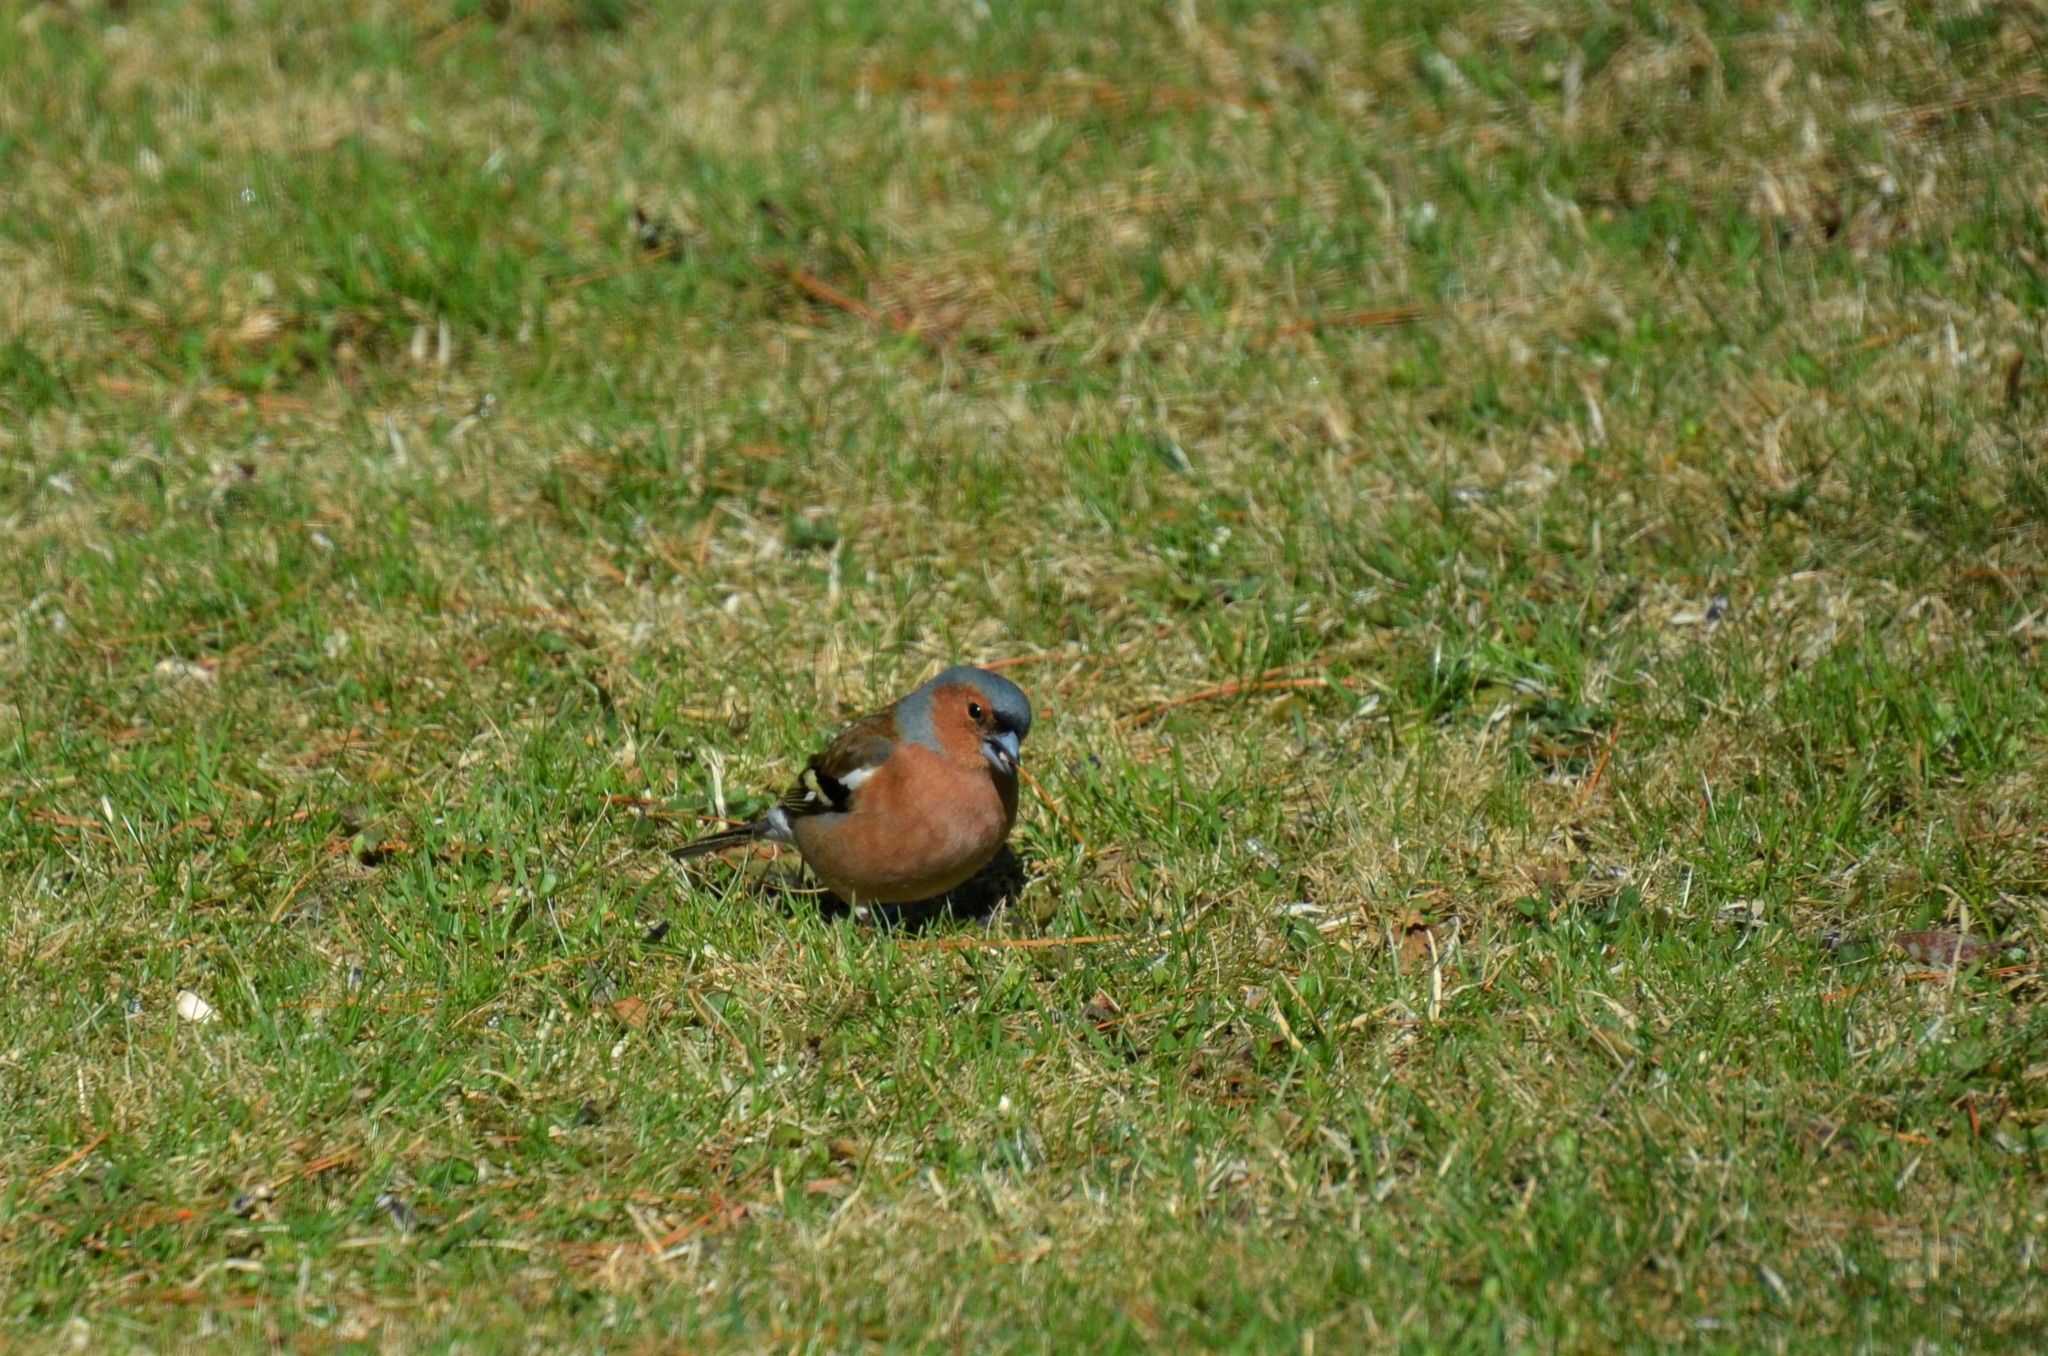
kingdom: Animalia
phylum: Chordata
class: Aves
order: Passeriformes
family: Fringillidae
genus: Fringilla
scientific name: Fringilla coelebs
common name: Common chaffinch
